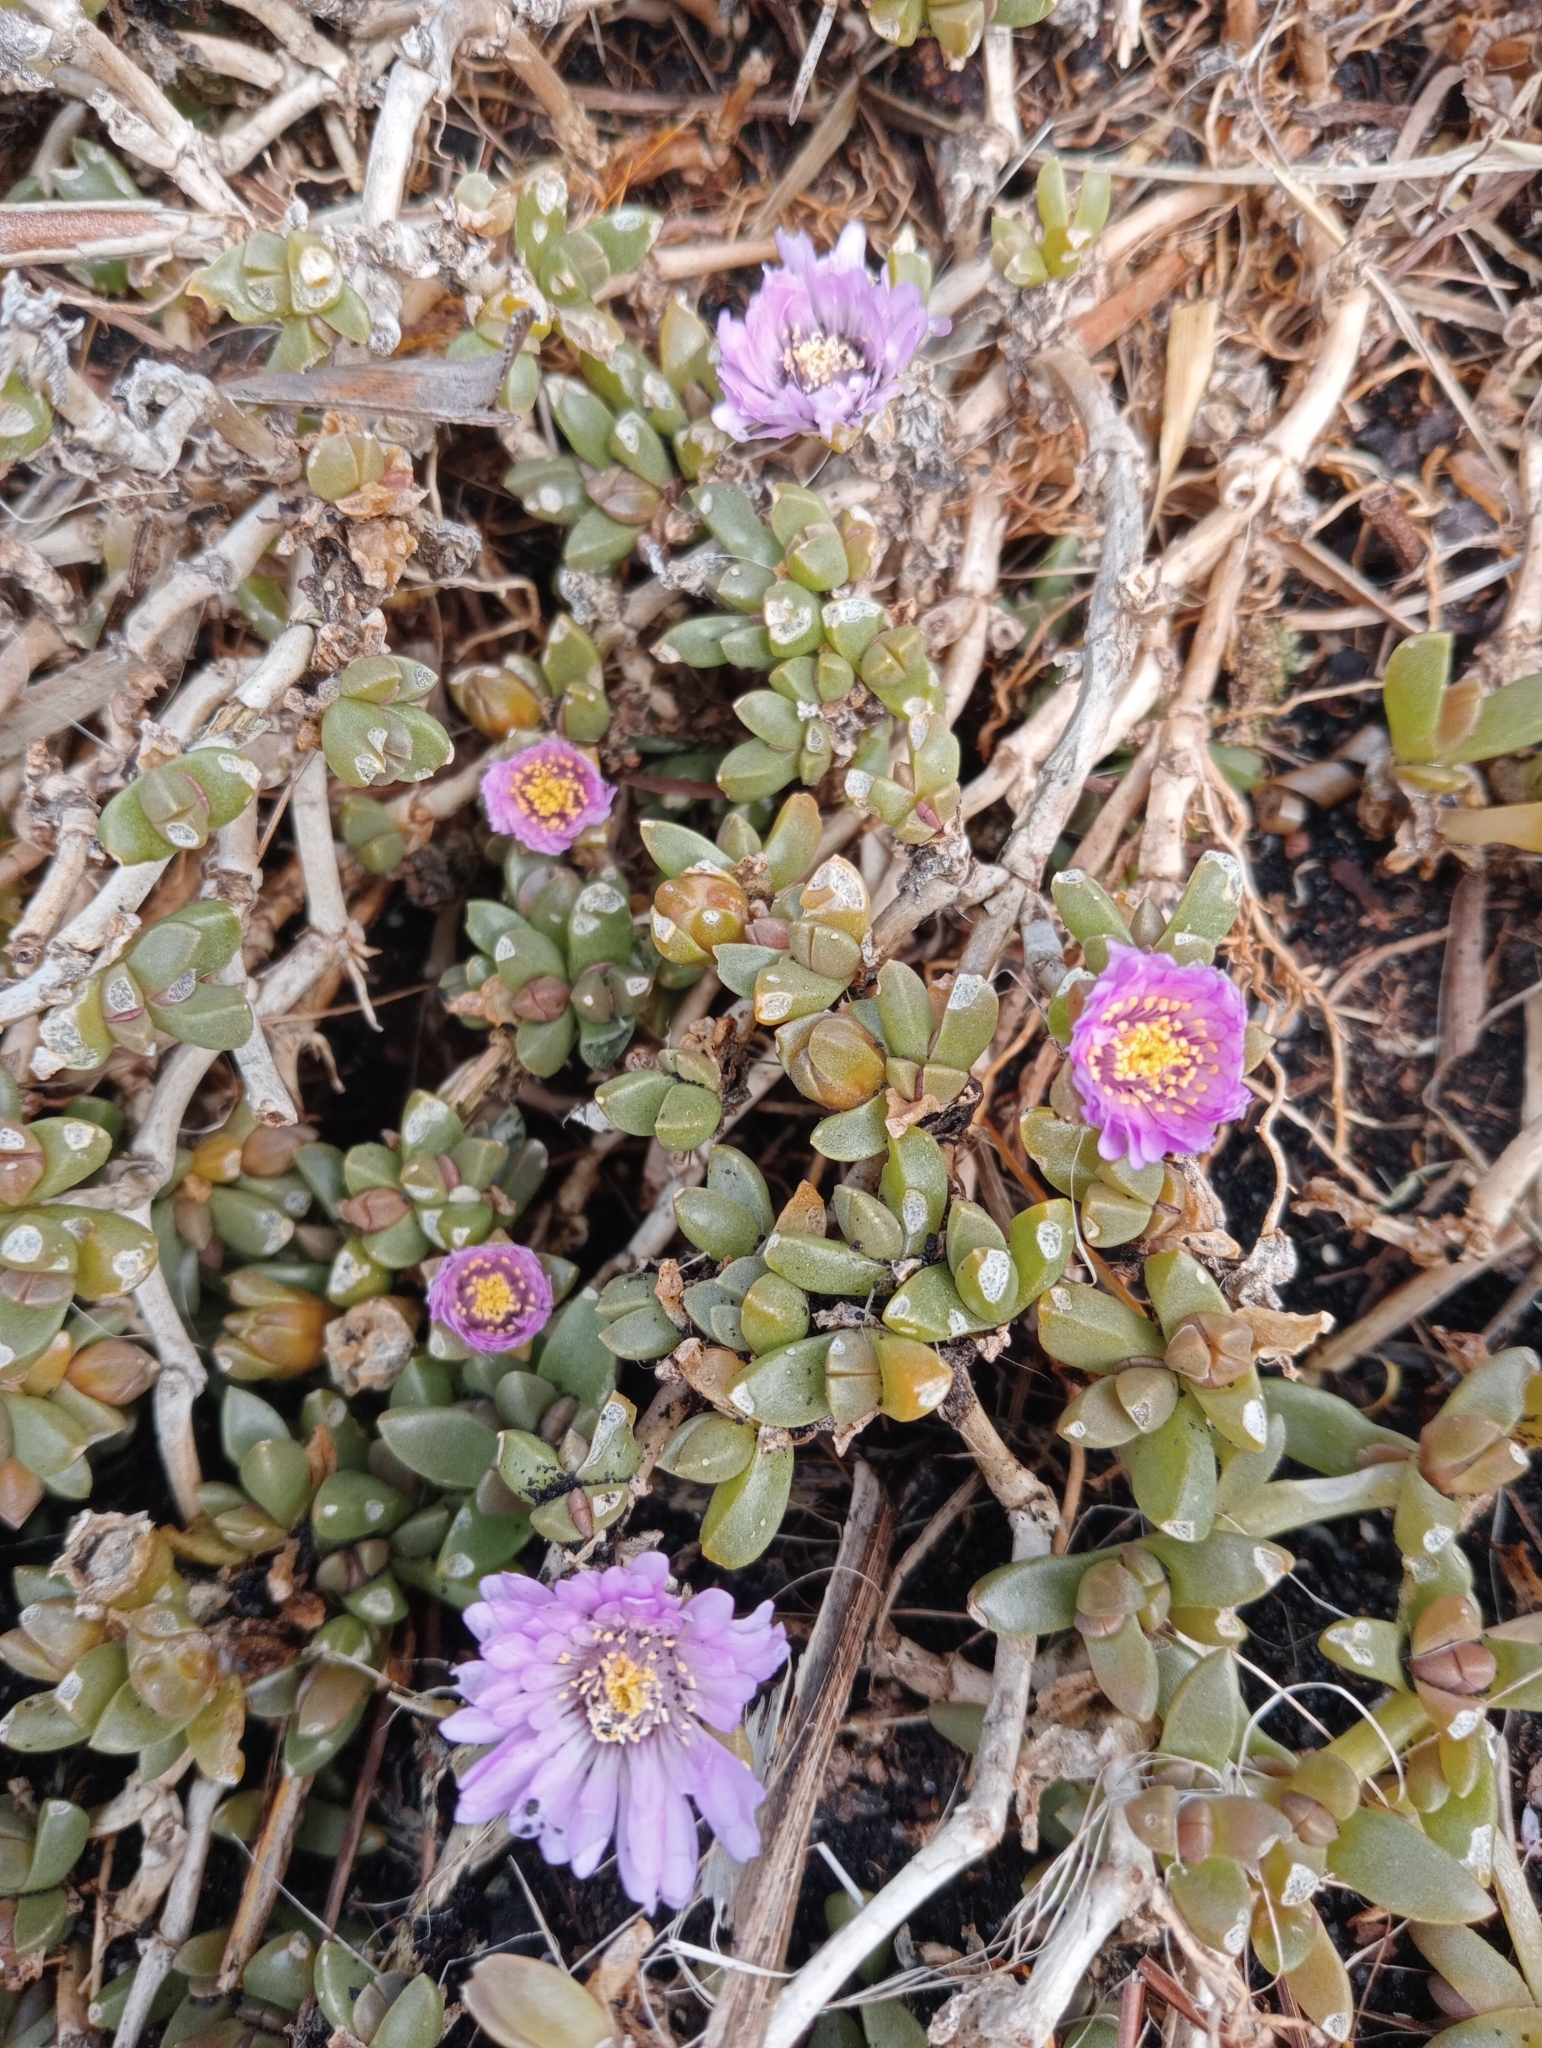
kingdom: Plantae
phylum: Tracheophyta
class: Magnoliopsida
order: Caryophyllales
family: Aizoaceae
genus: Disphyma
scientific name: Disphyma papillatum
